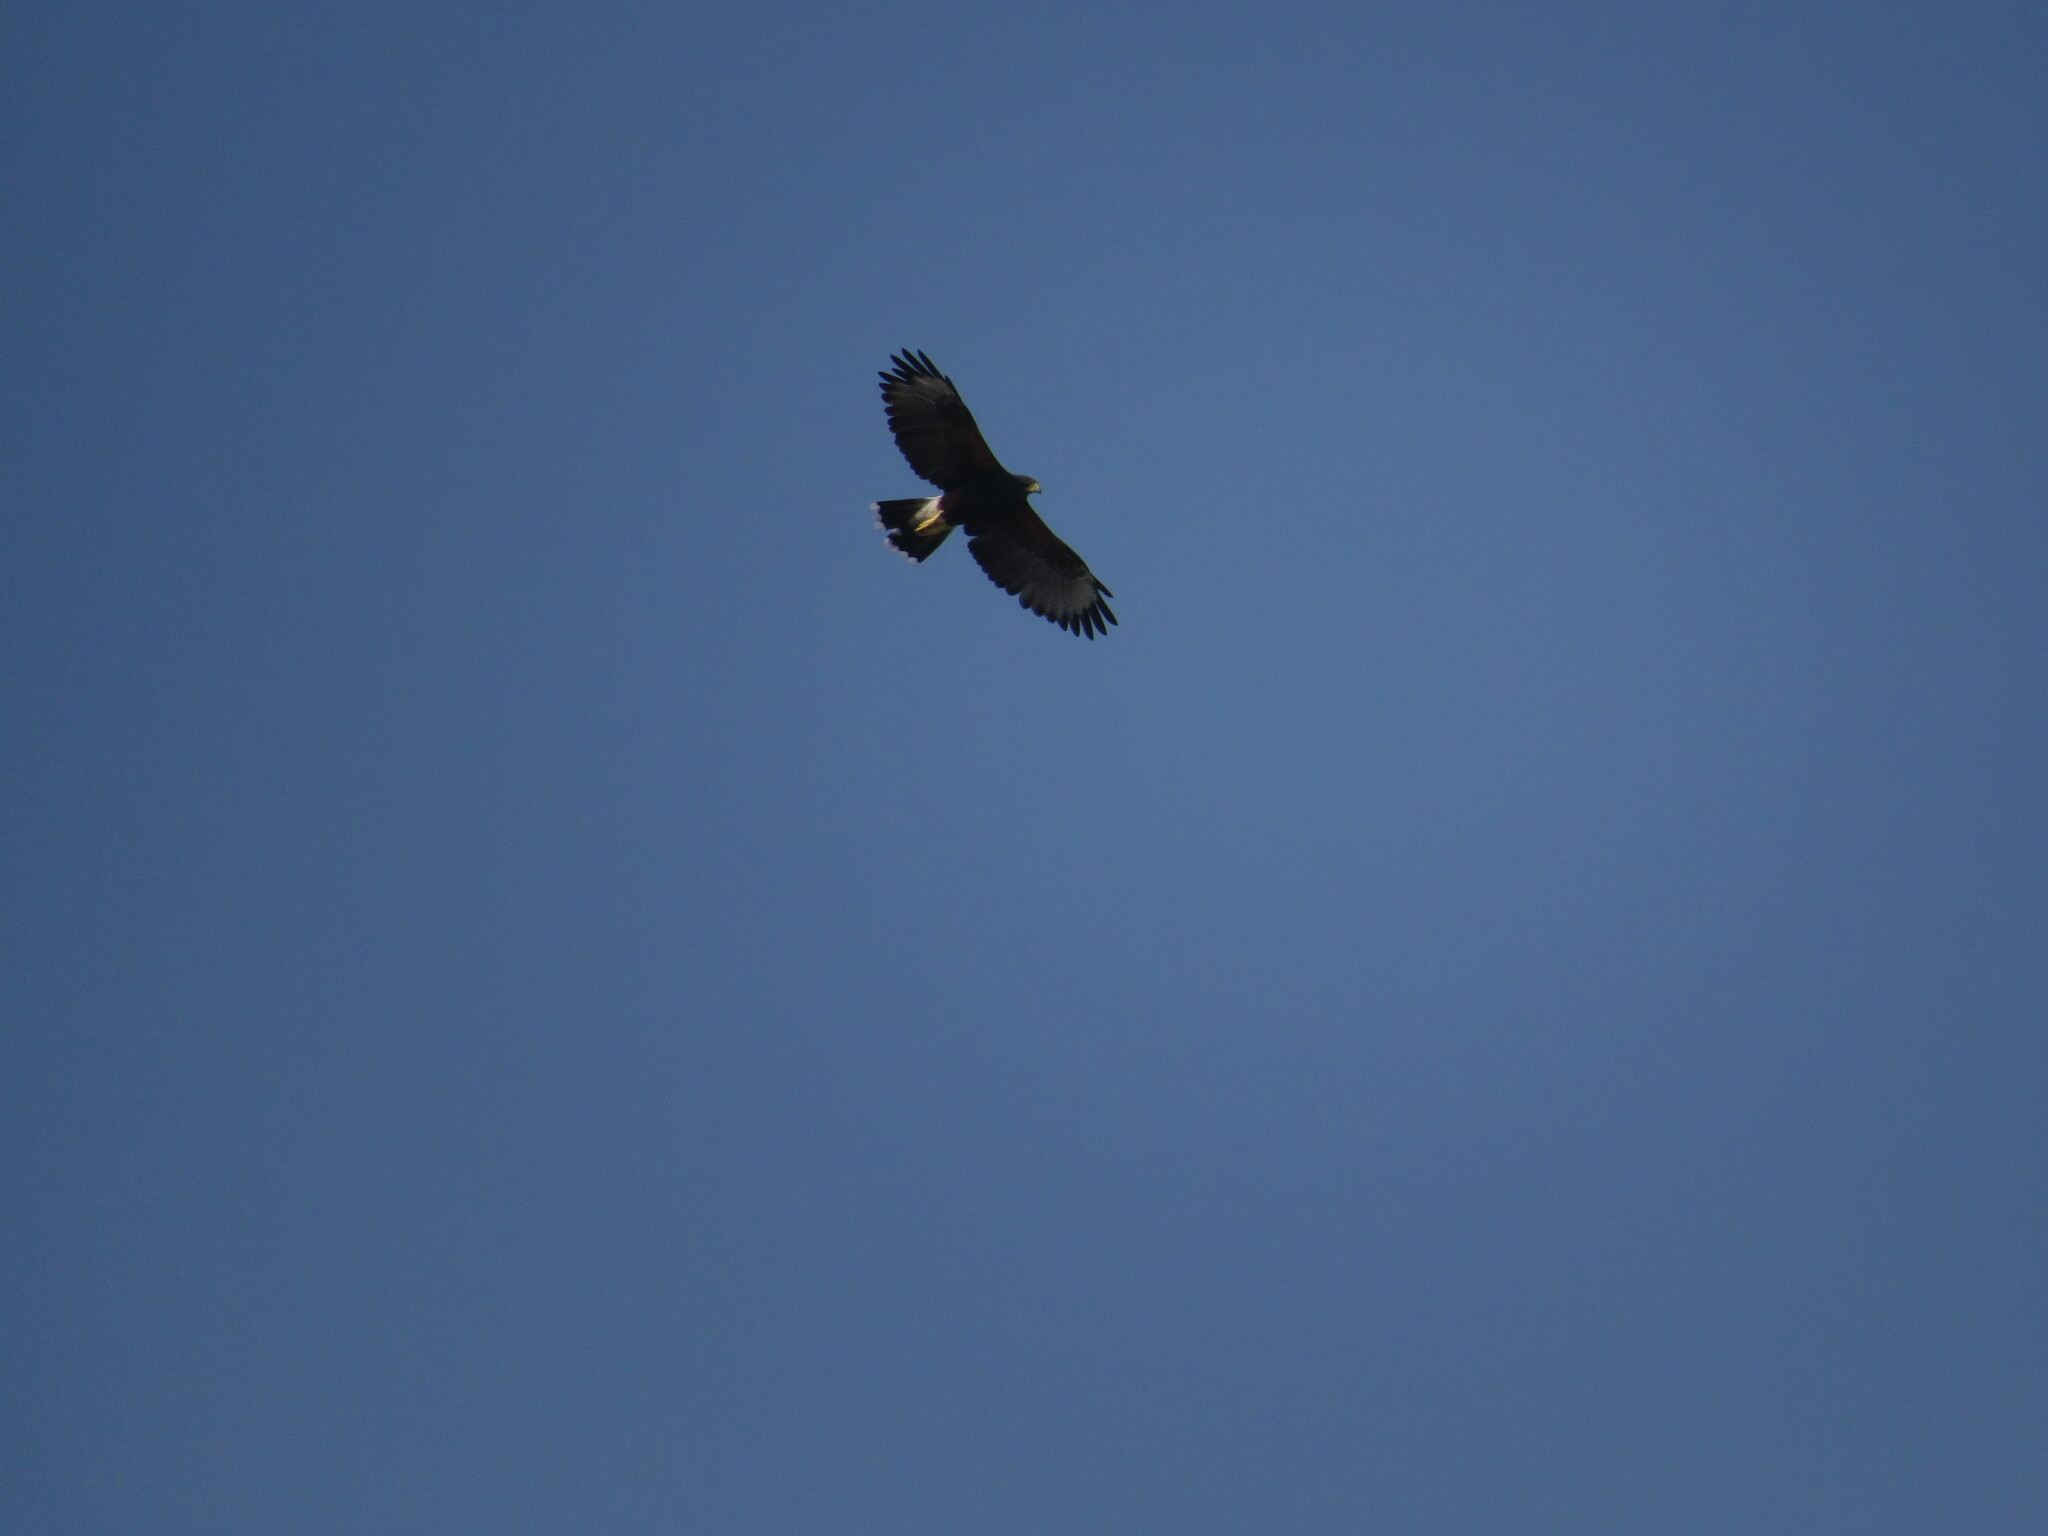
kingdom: Animalia
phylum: Chordata
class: Aves
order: Accipitriformes
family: Accipitridae
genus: Parabuteo
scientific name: Parabuteo unicinctus
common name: Harris's hawk
